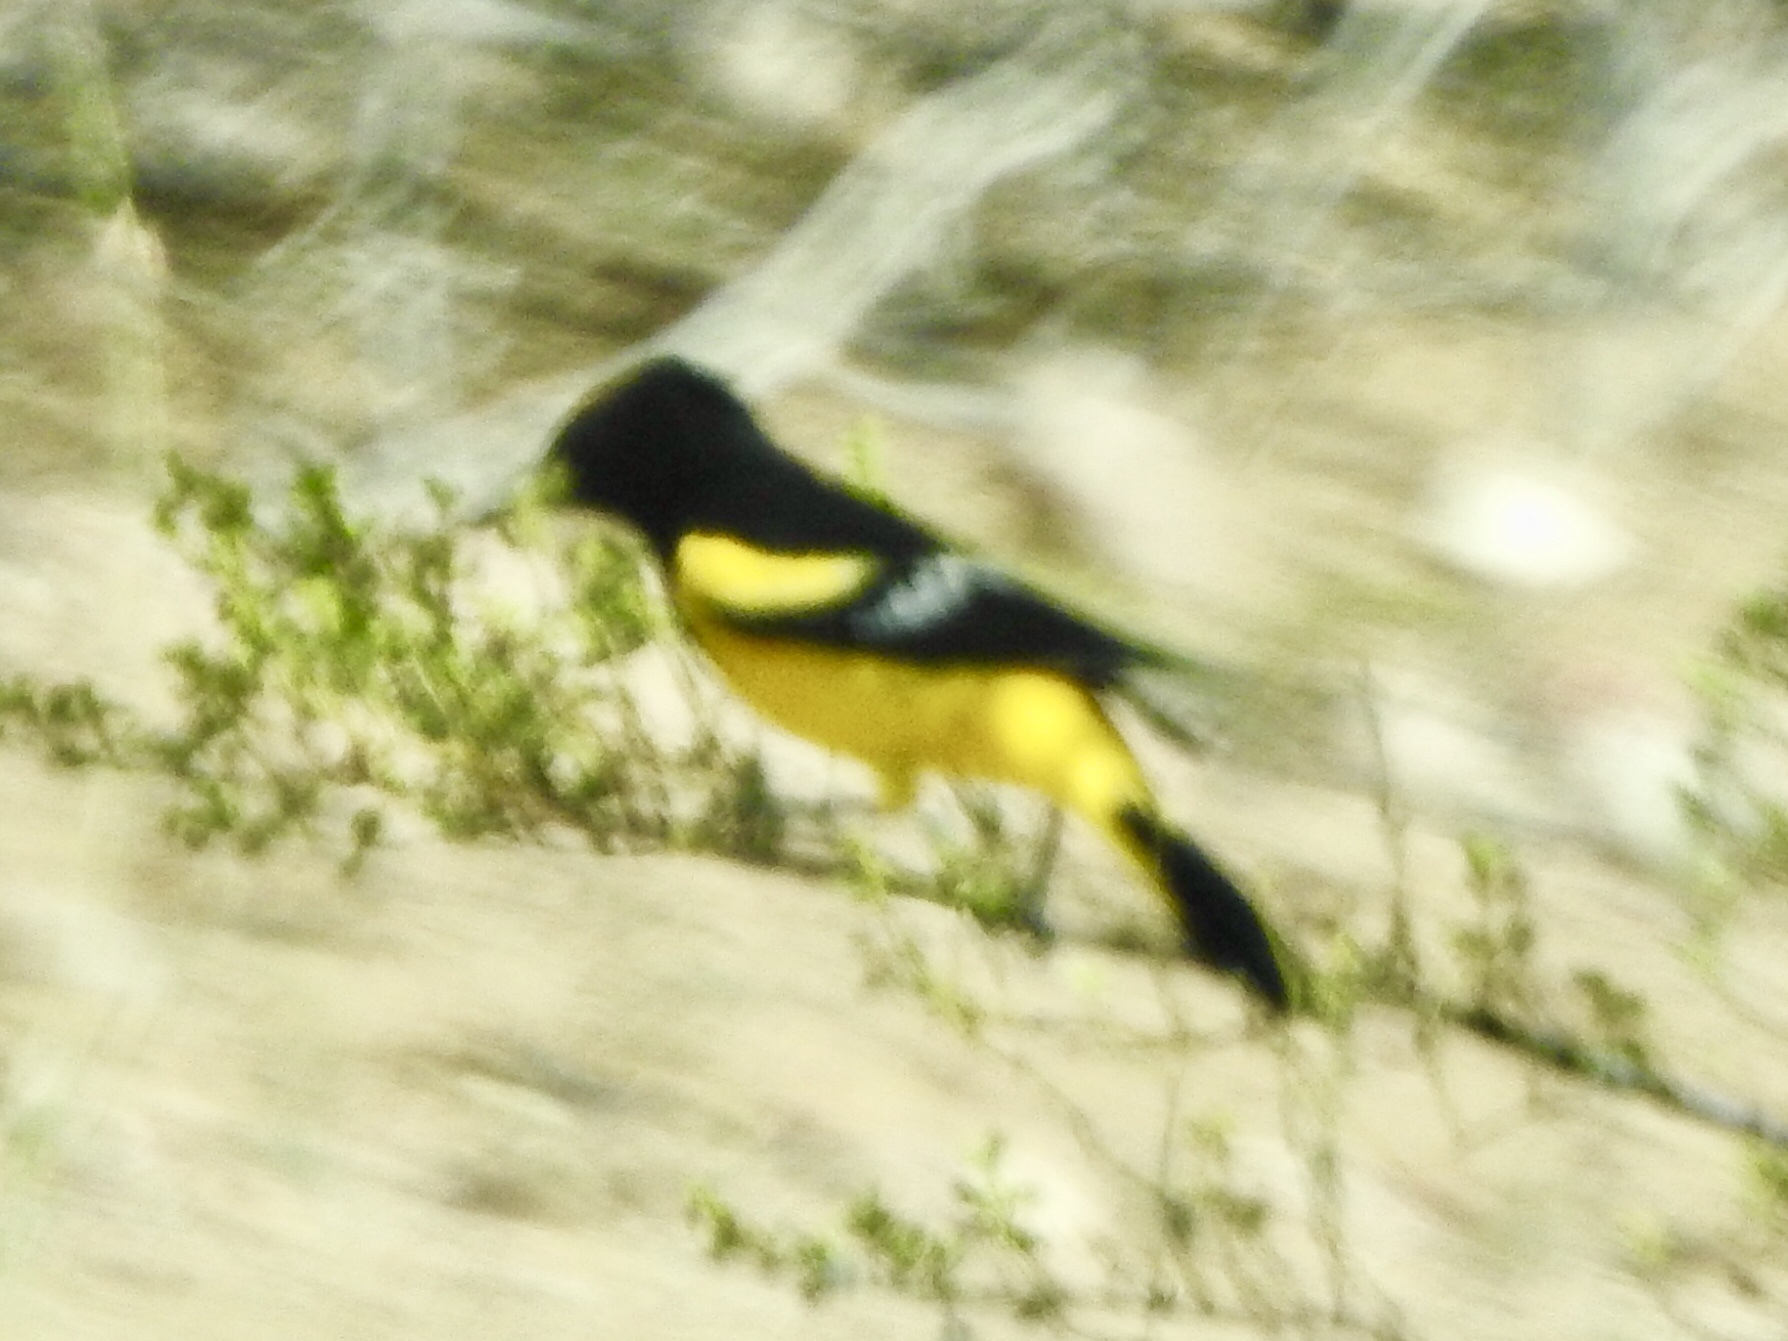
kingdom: Animalia
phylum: Chordata
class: Aves
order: Passeriformes
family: Icteridae
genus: Icterus
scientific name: Icterus parisorum
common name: Scott's oriole
